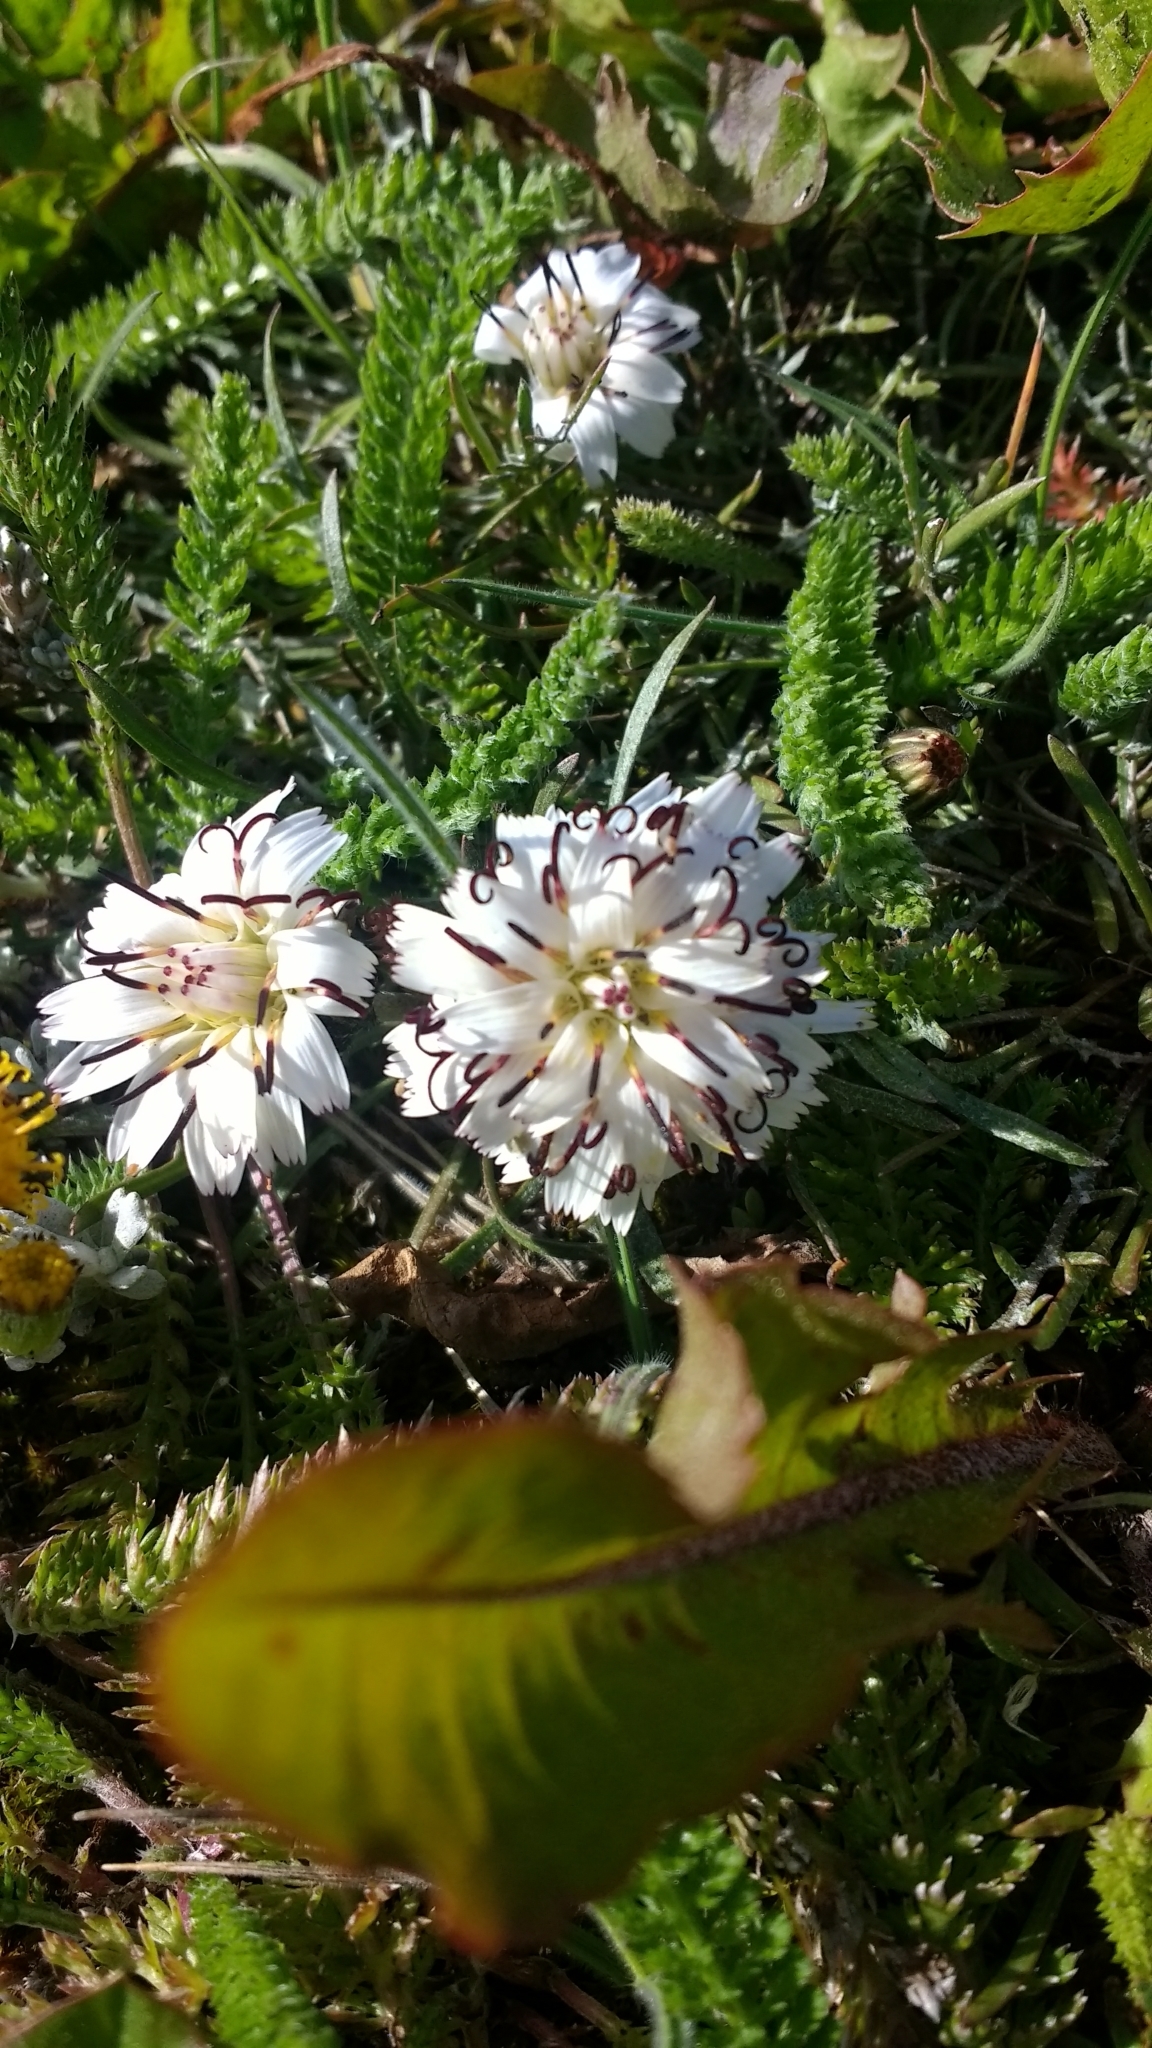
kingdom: Plantae
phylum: Tracheophyta
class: Magnoliopsida
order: Asterales
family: Asteraceae
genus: Hypochaeris
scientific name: Hypochaeris incana
